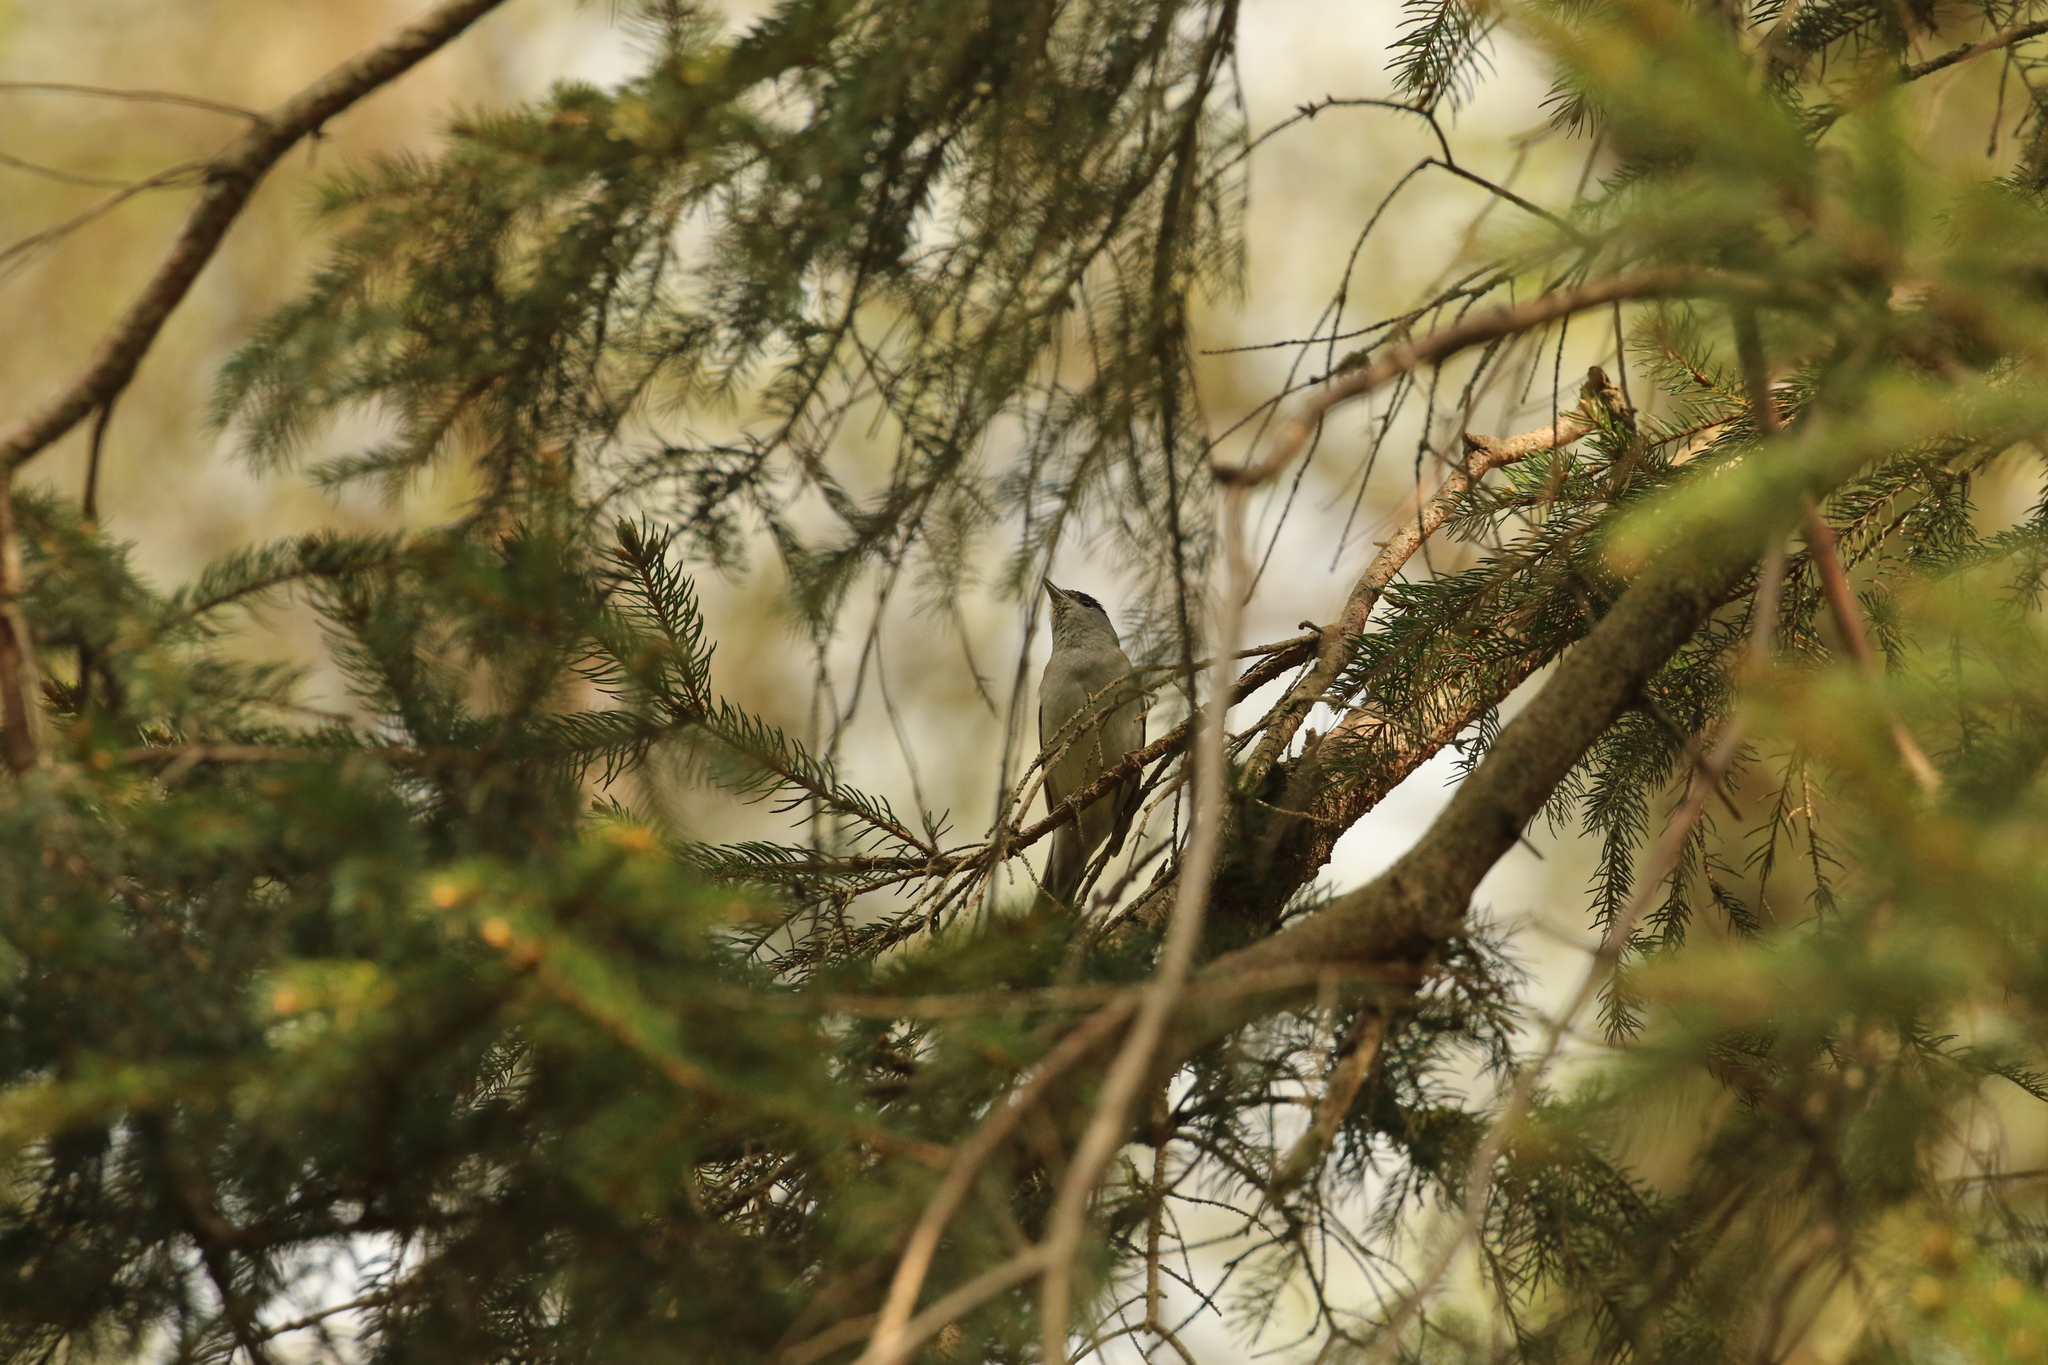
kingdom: Animalia
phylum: Chordata
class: Aves
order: Passeriformes
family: Sylviidae
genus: Sylvia
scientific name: Sylvia atricapilla
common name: Eurasian blackcap
